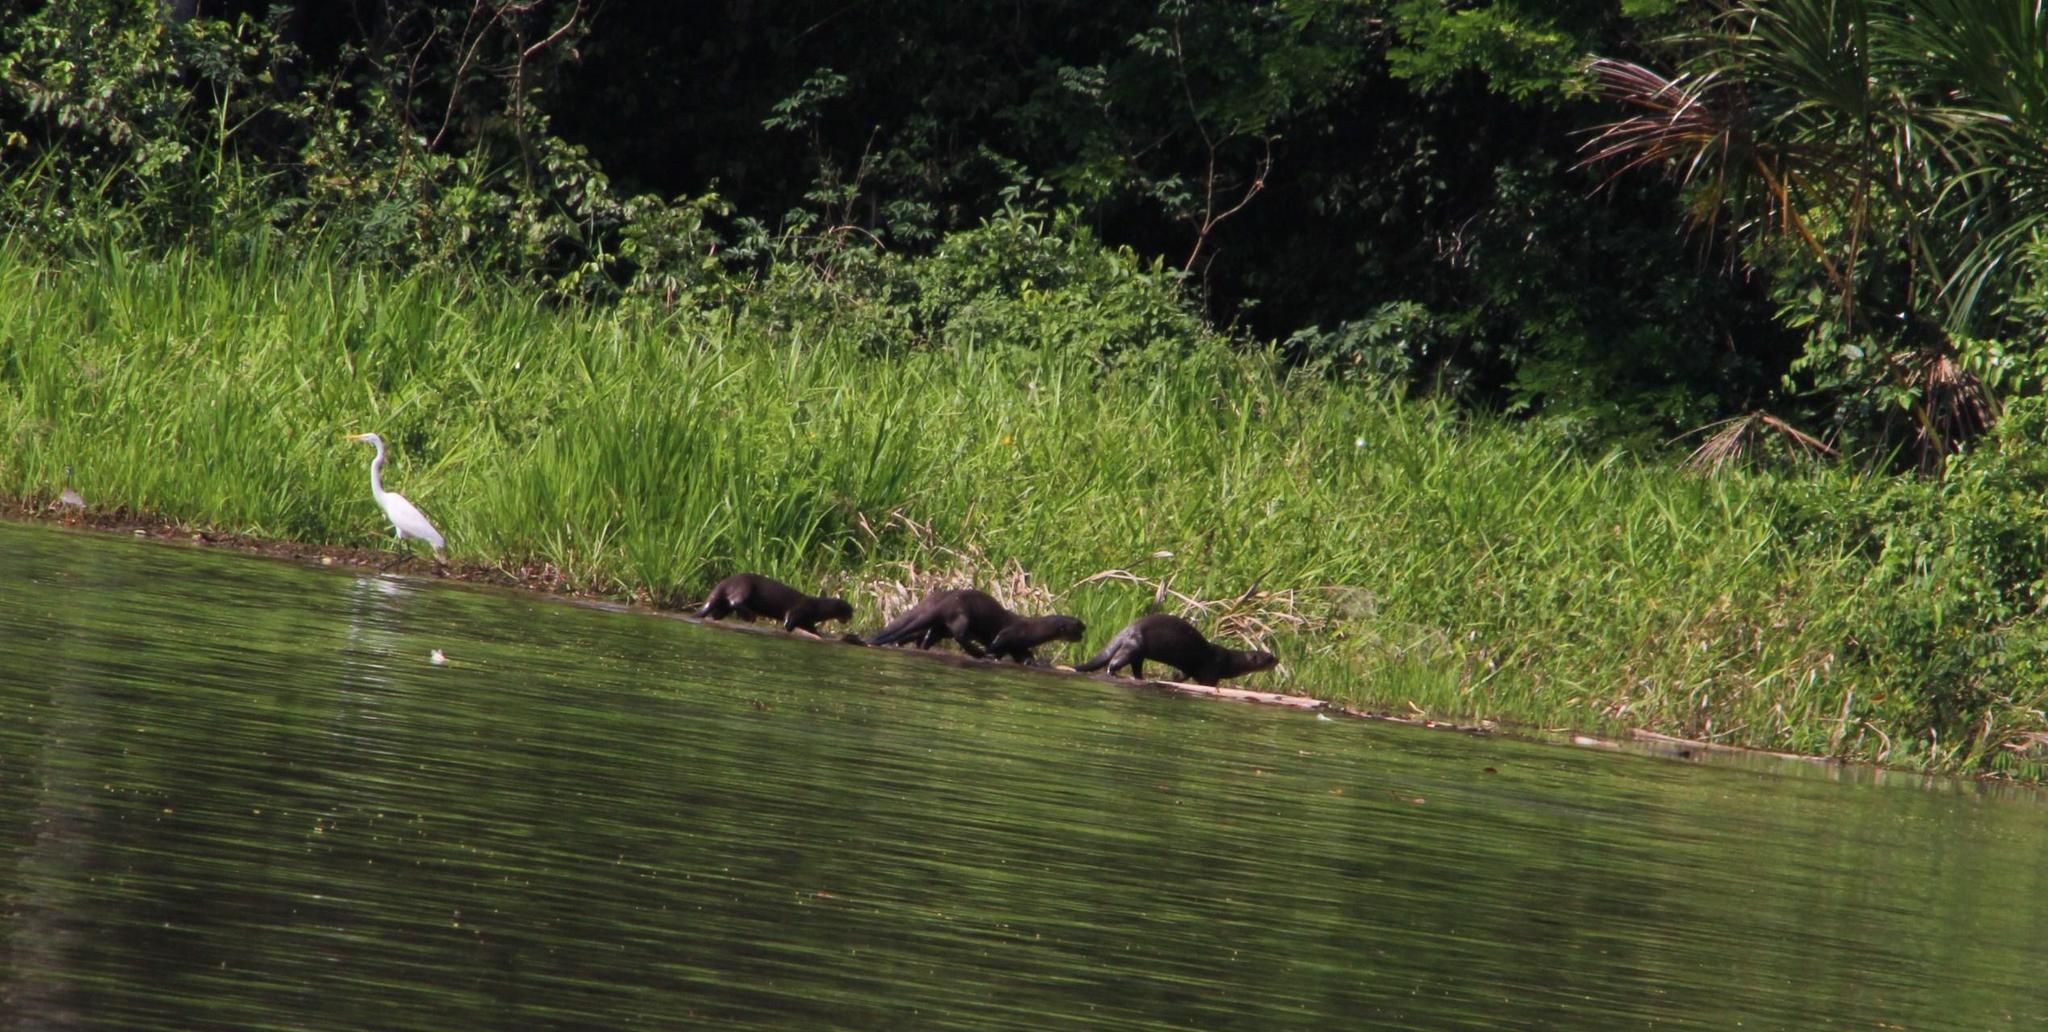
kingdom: Animalia
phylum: Chordata
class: Mammalia
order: Carnivora
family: Mustelidae
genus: Pteronura
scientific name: Pteronura brasiliensis
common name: Giant otter
